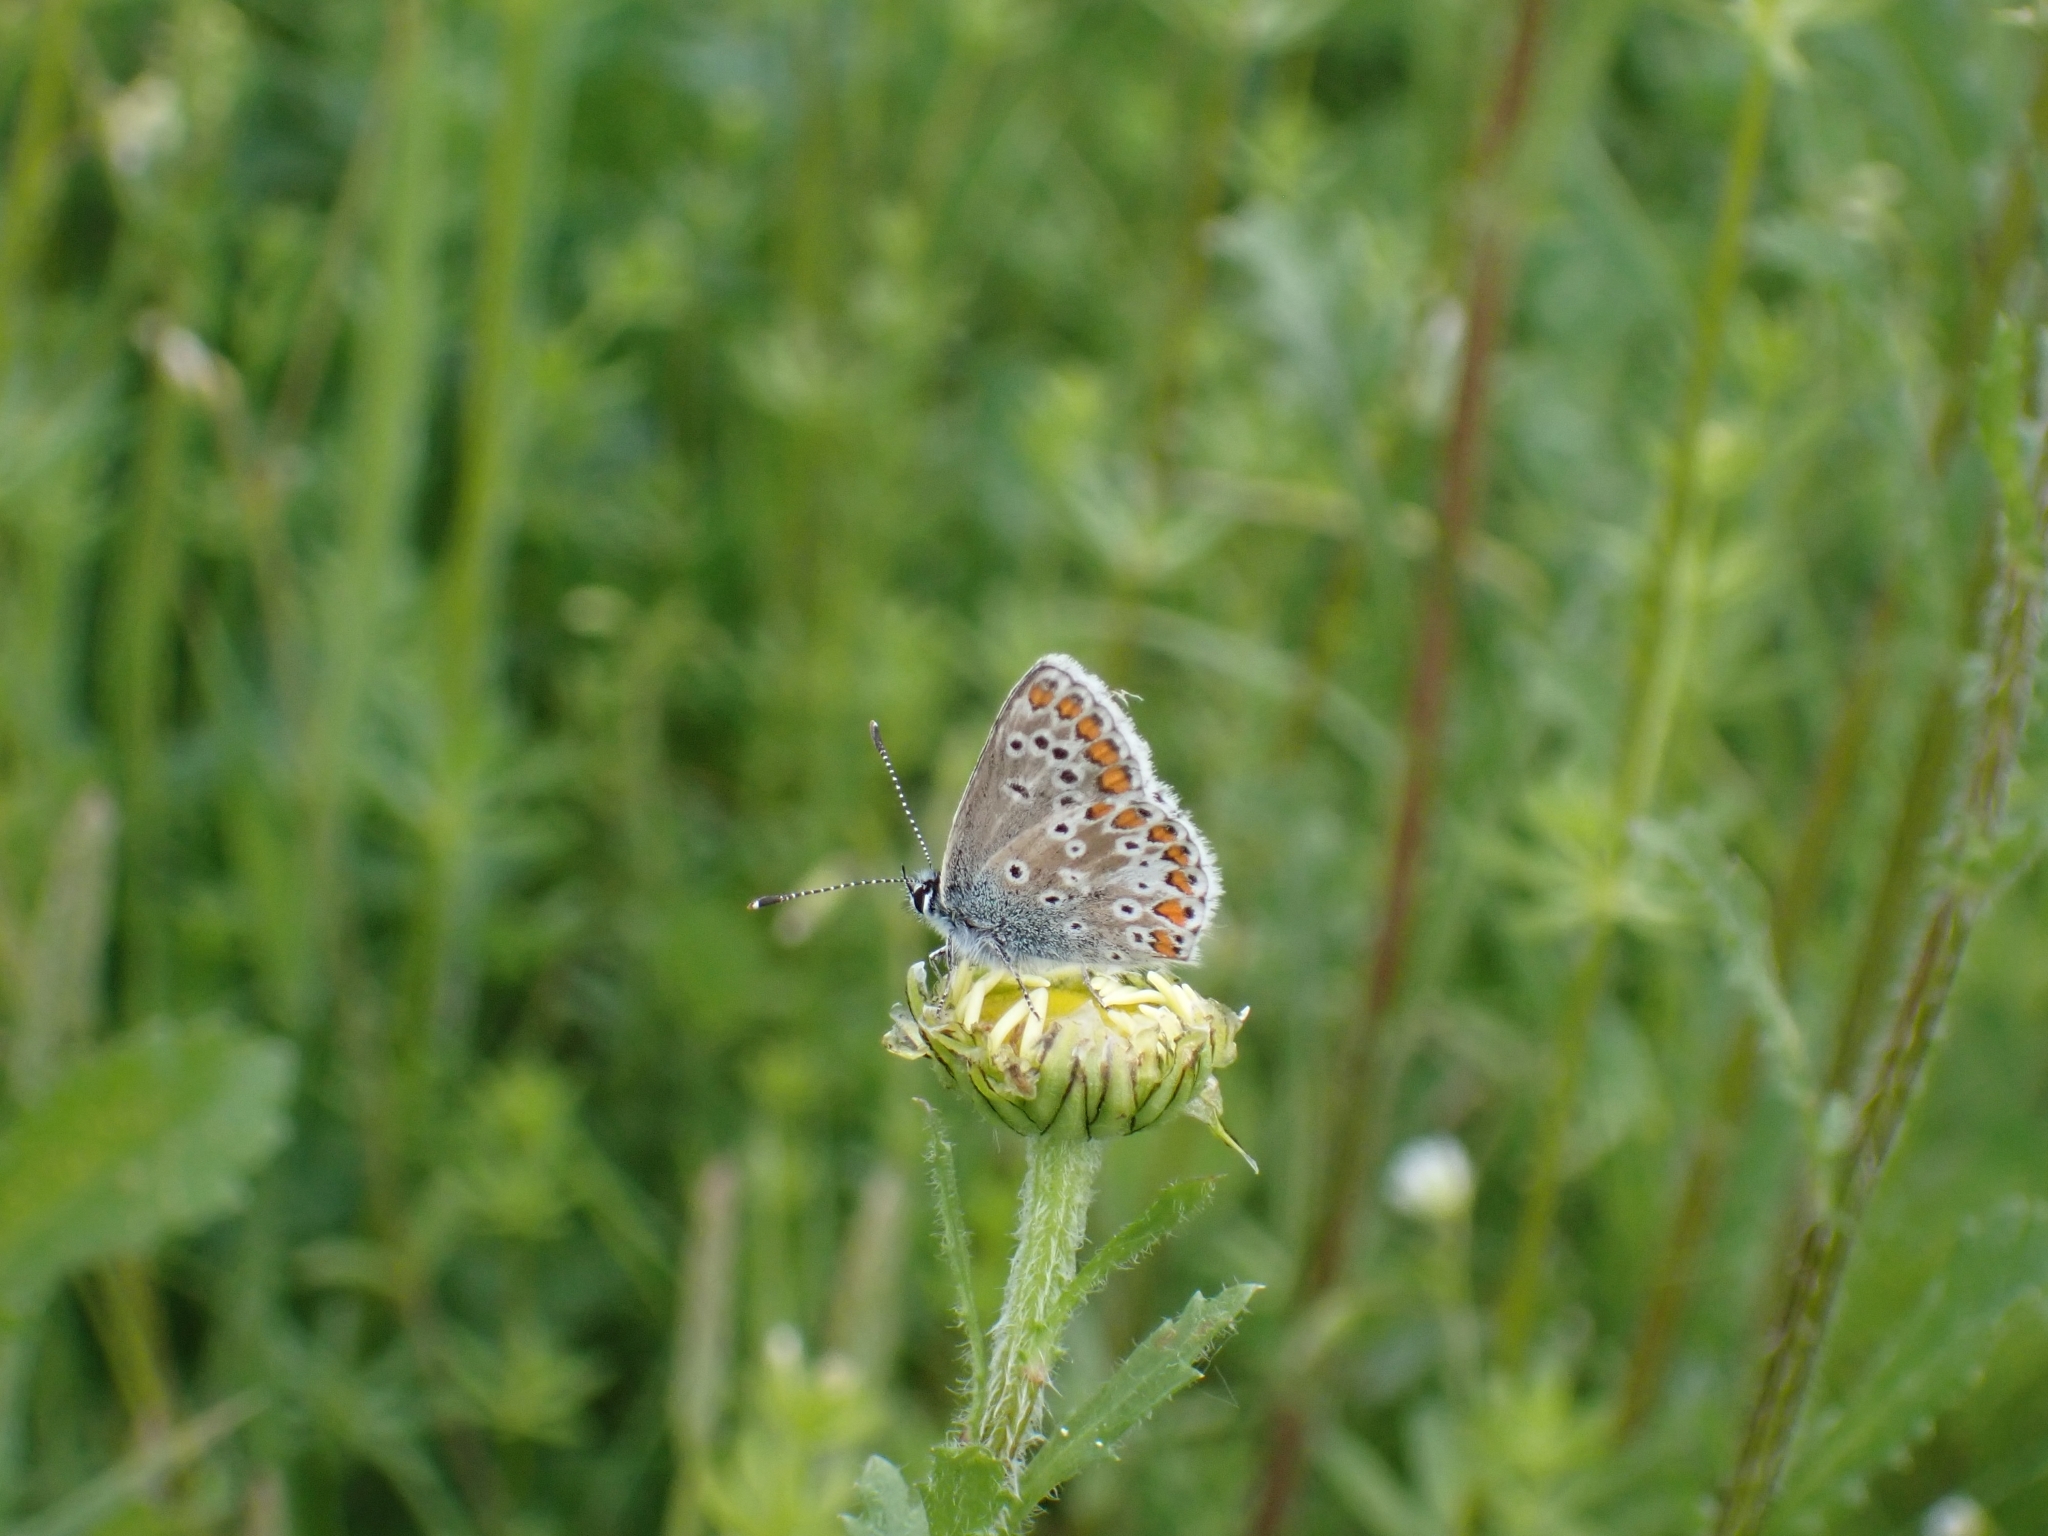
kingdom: Animalia
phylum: Arthropoda
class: Insecta
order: Lepidoptera
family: Lycaenidae
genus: Aricia
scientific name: Aricia agestis
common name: Brown argus
